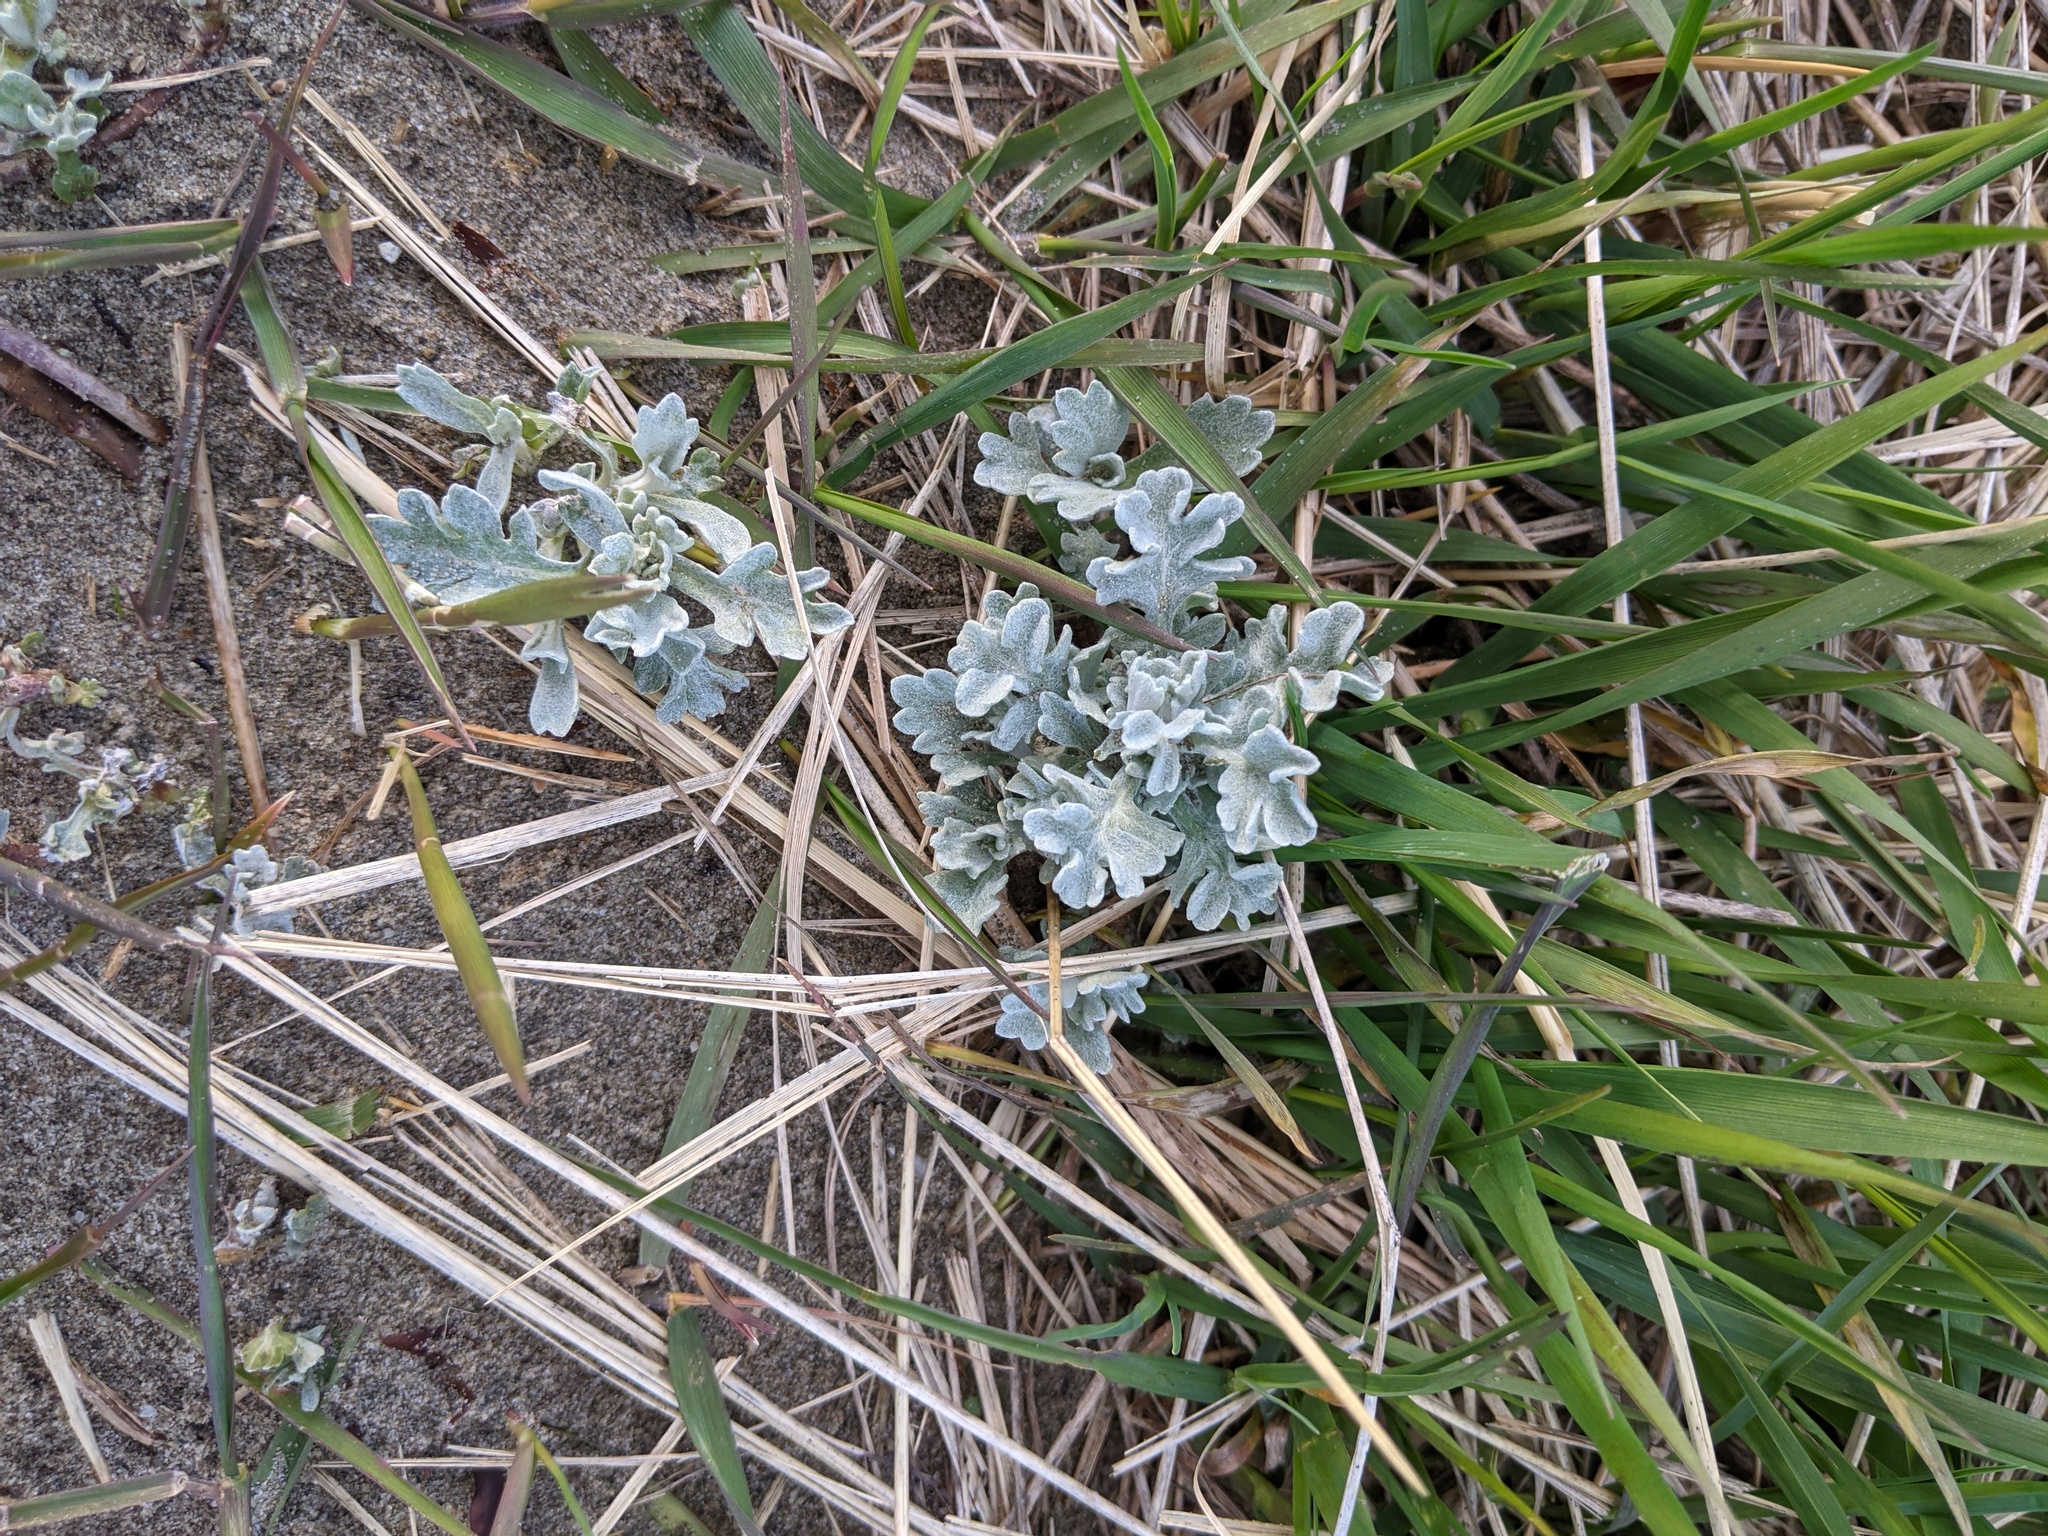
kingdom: Plantae
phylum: Tracheophyta
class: Magnoliopsida
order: Asterales
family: Asteraceae
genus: Artemisia
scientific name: Artemisia stelleriana
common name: Beach wormwood
